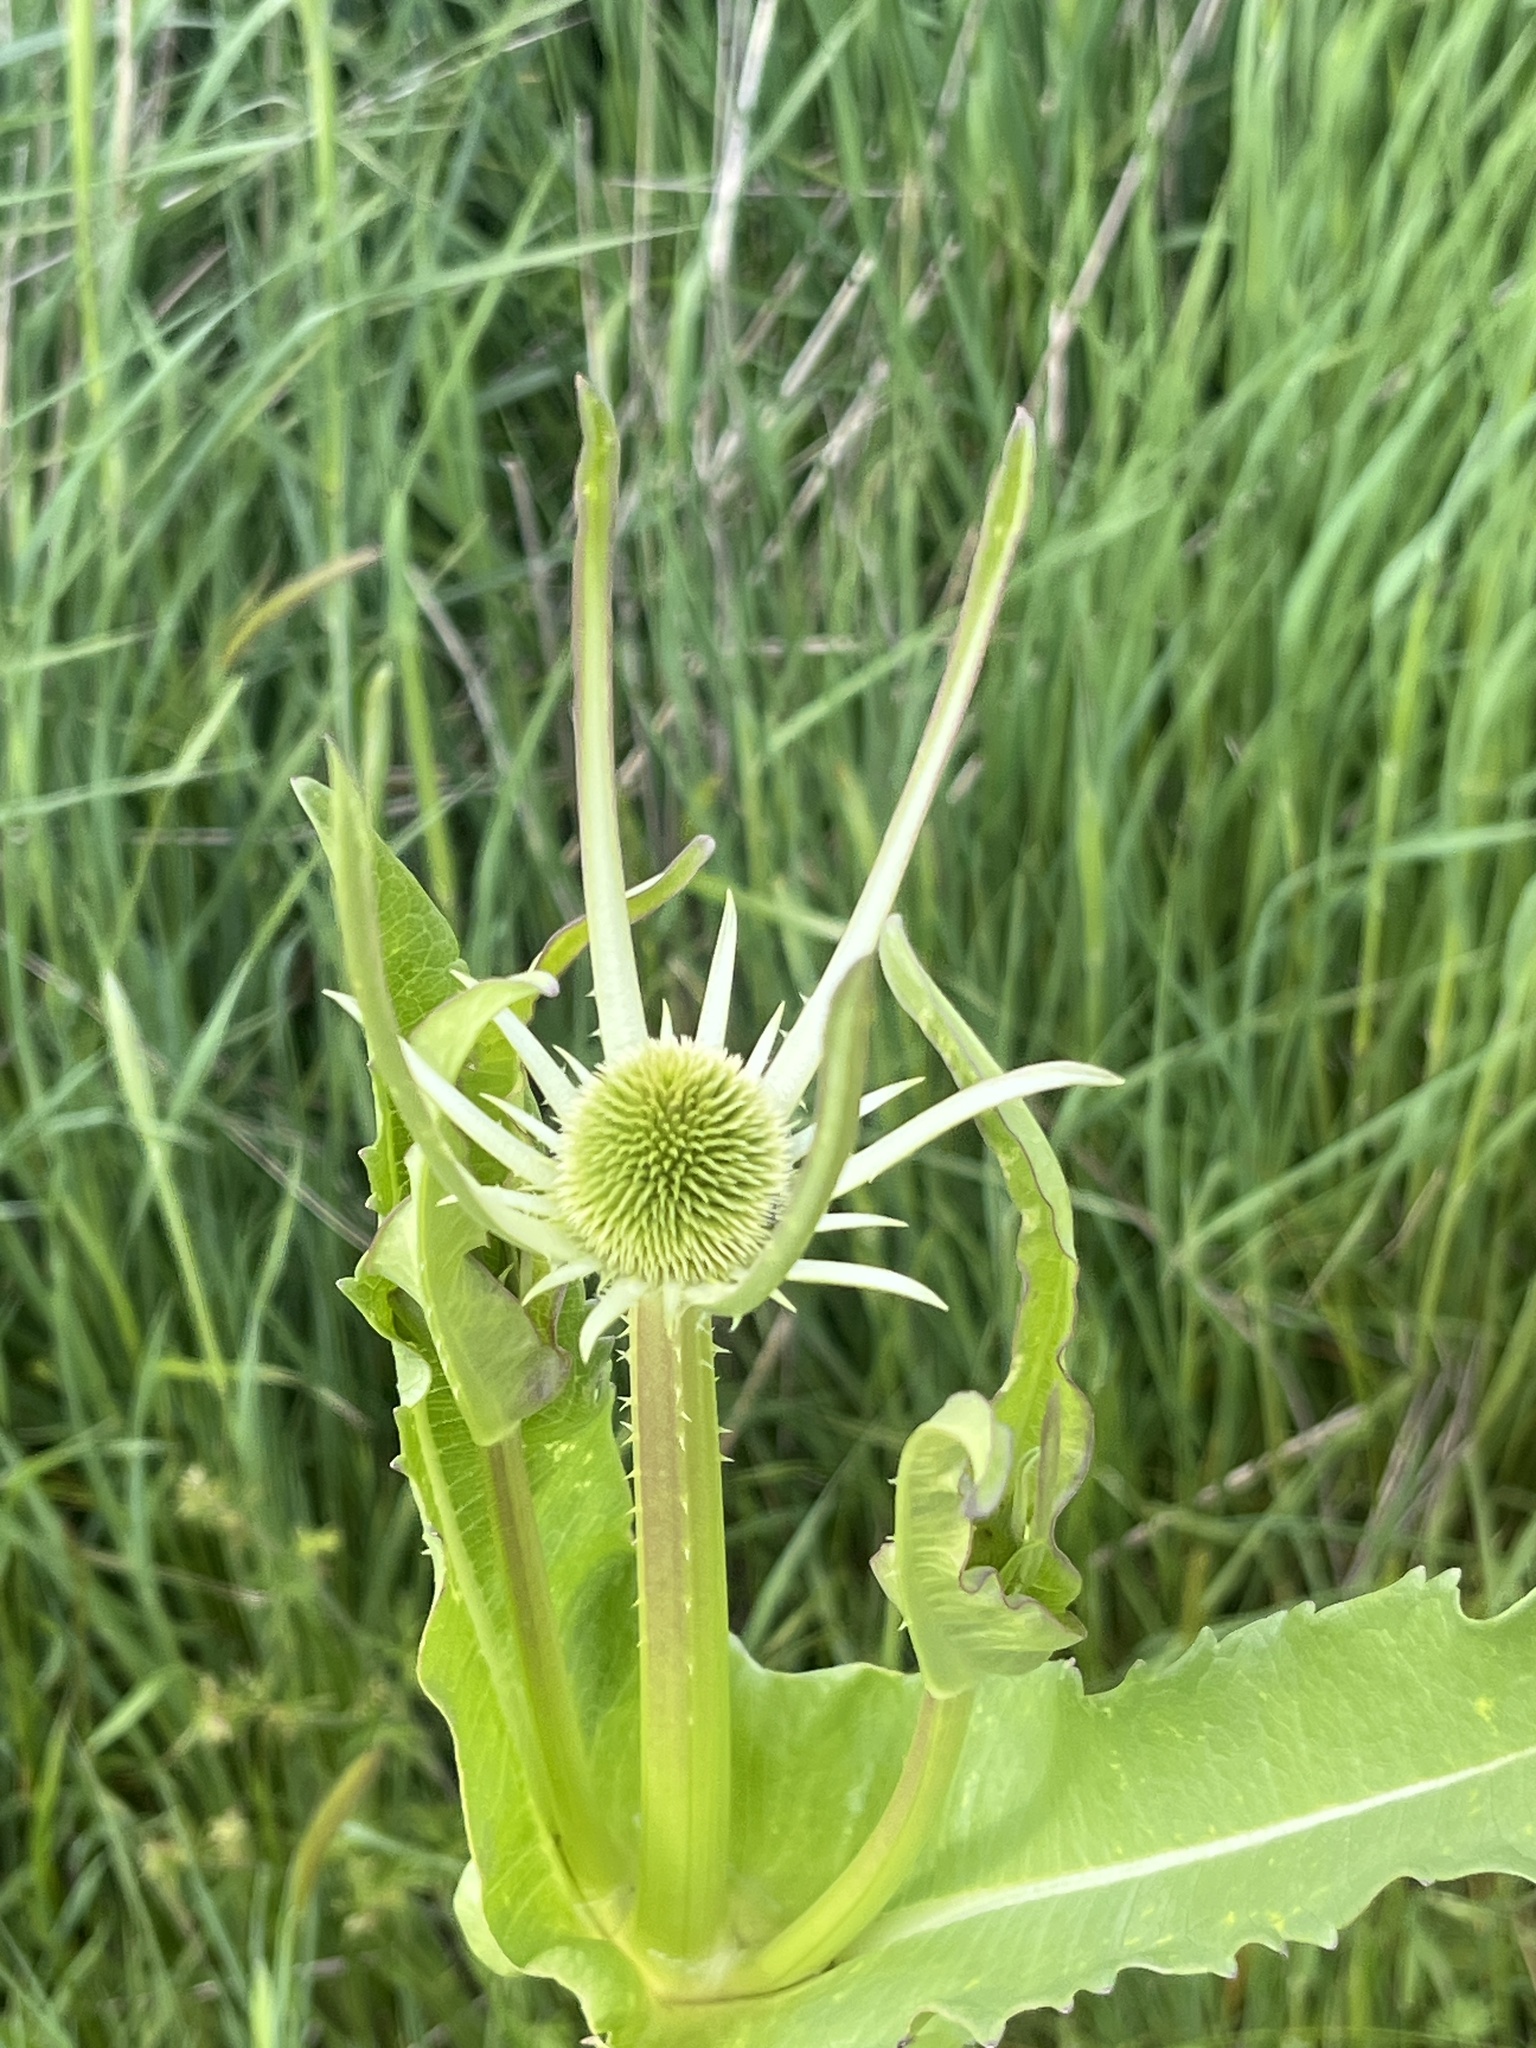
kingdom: Plantae
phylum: Tracheophyta
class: Magnoliopsida
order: Dipsacales
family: Caprifoliaceae
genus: Dipsacus
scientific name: Dipsacus sativus
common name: Fuller's teasel
